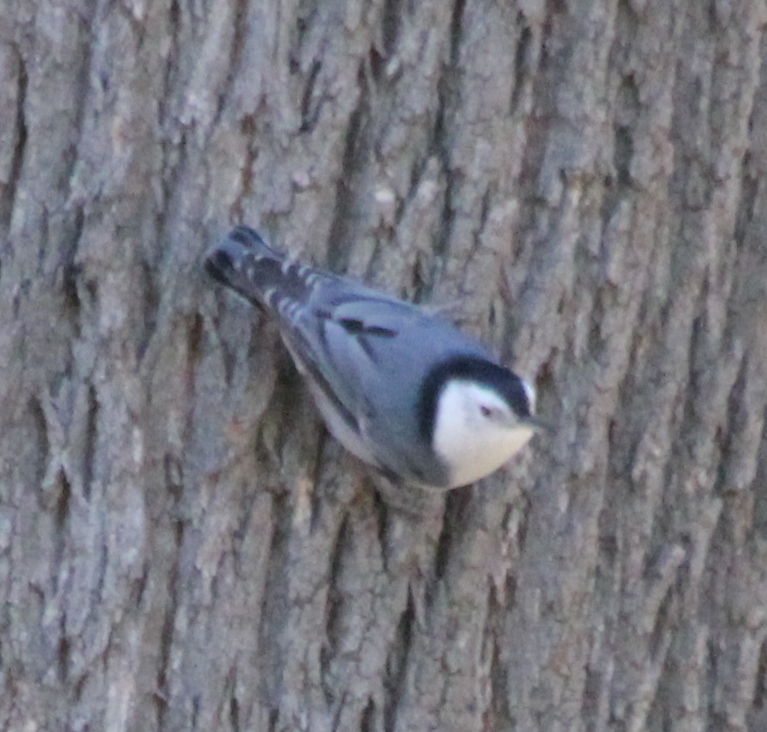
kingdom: Animalia
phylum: Chordata
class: Aves
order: Passeriformes
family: Sittidae
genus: Sitta
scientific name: Sitta carolinensis
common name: White-breasted nuthatch
